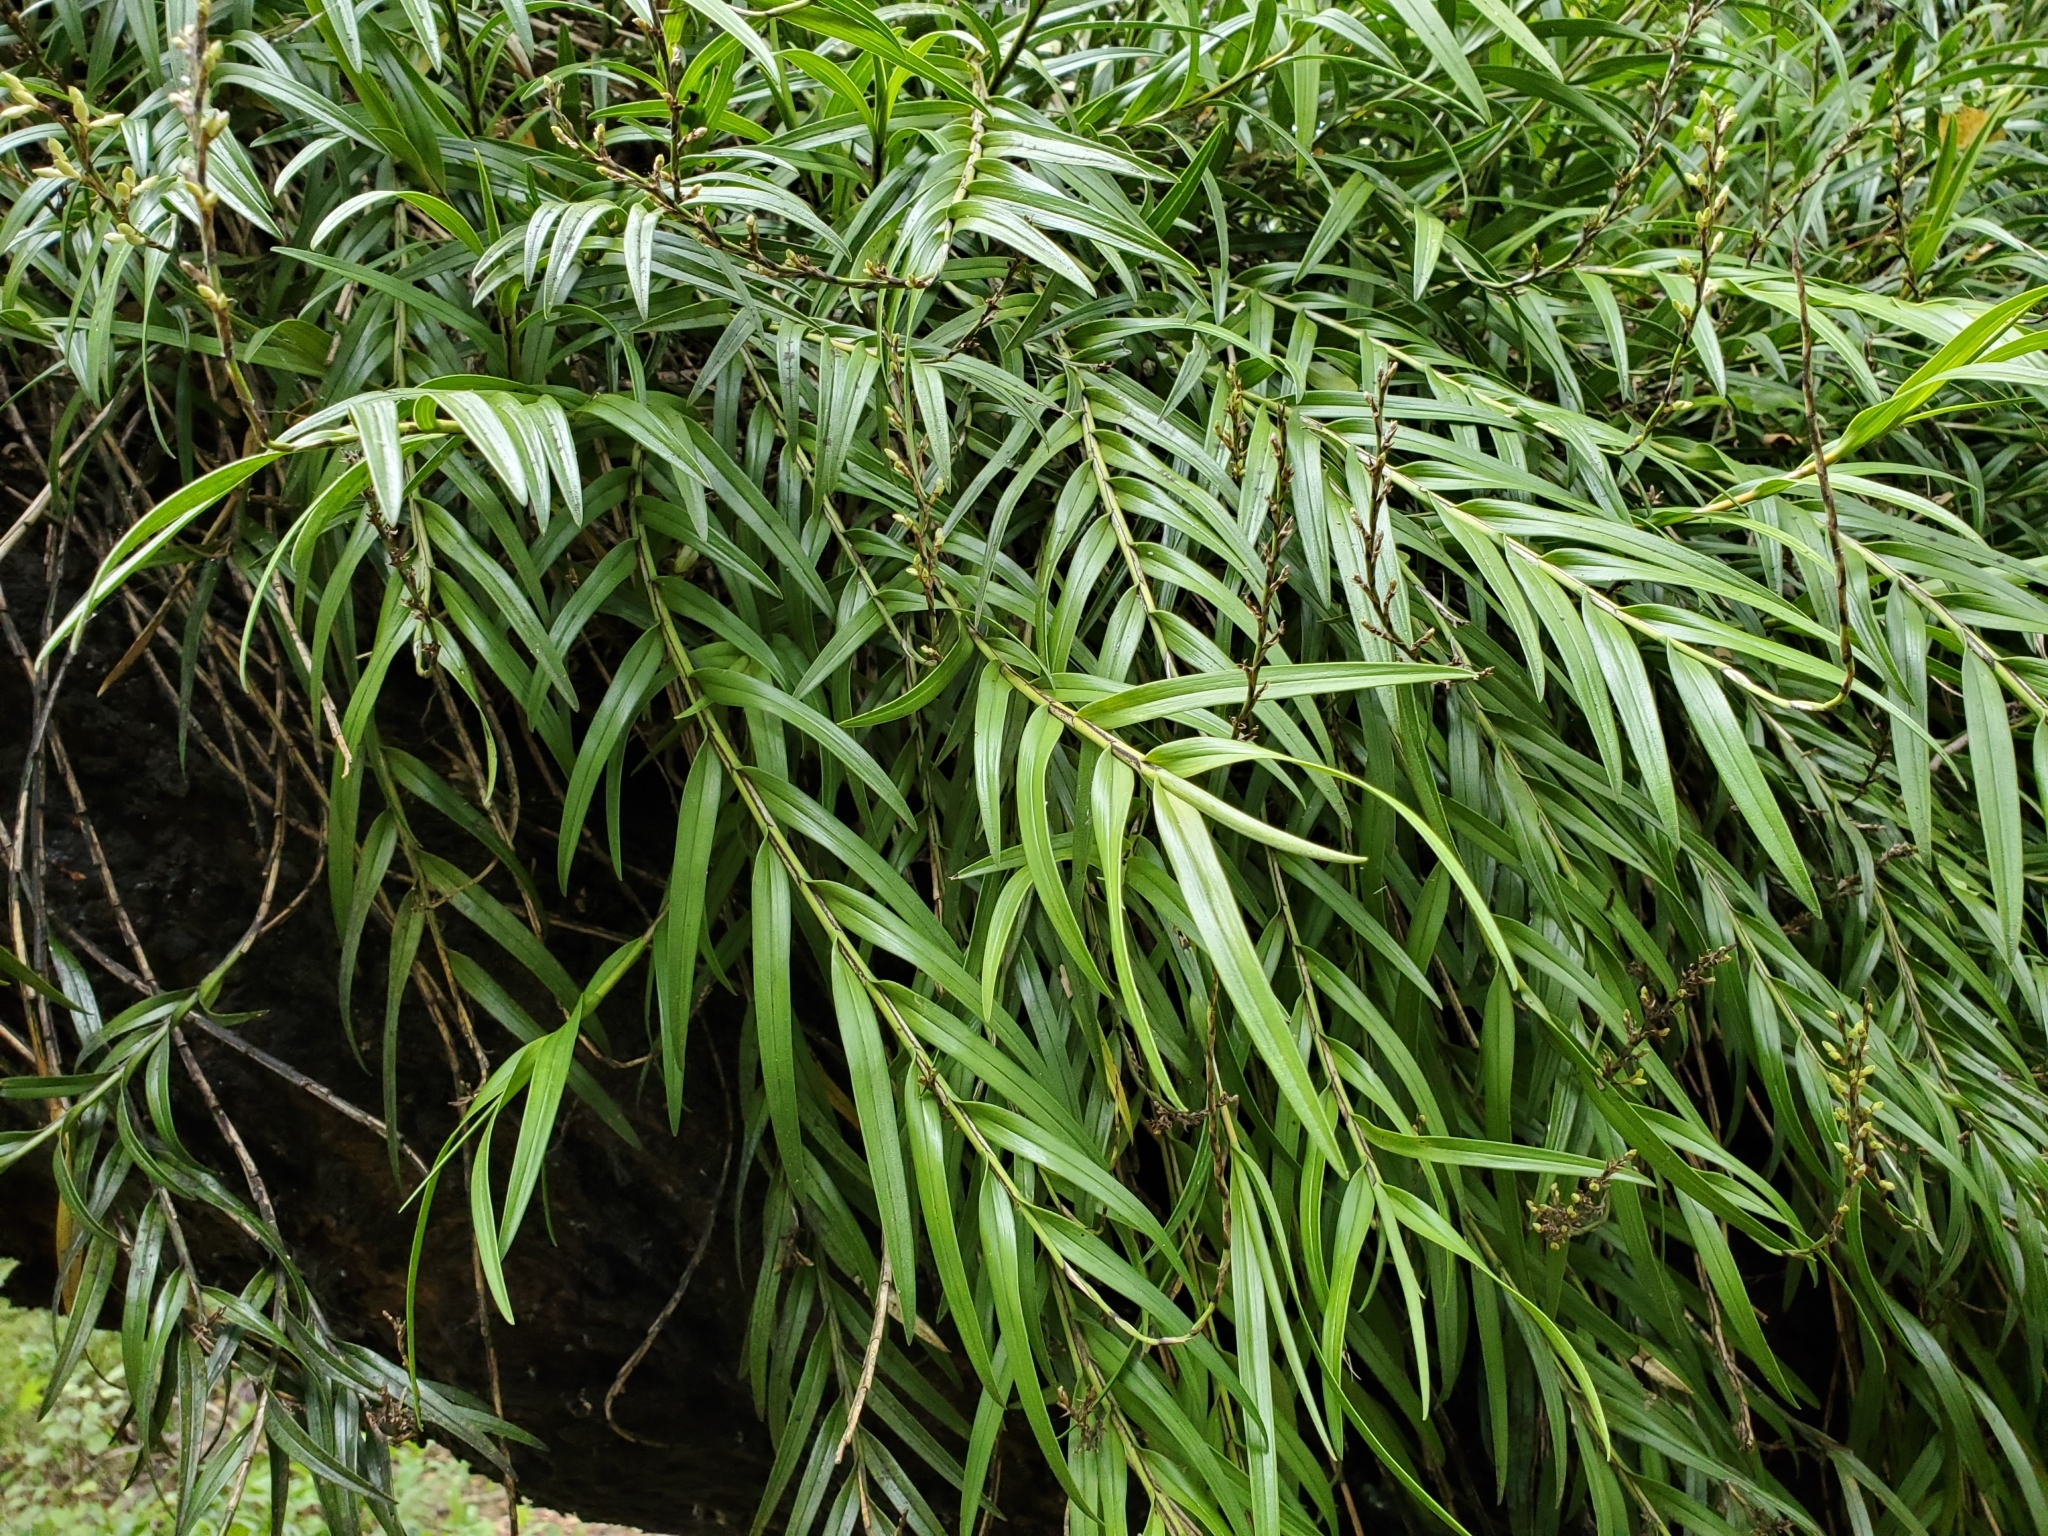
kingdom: Plantae
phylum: Tracheophyta
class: Liliopsida
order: Asparagales
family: Orchidaceae
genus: Earina
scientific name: Earina autumnalis
